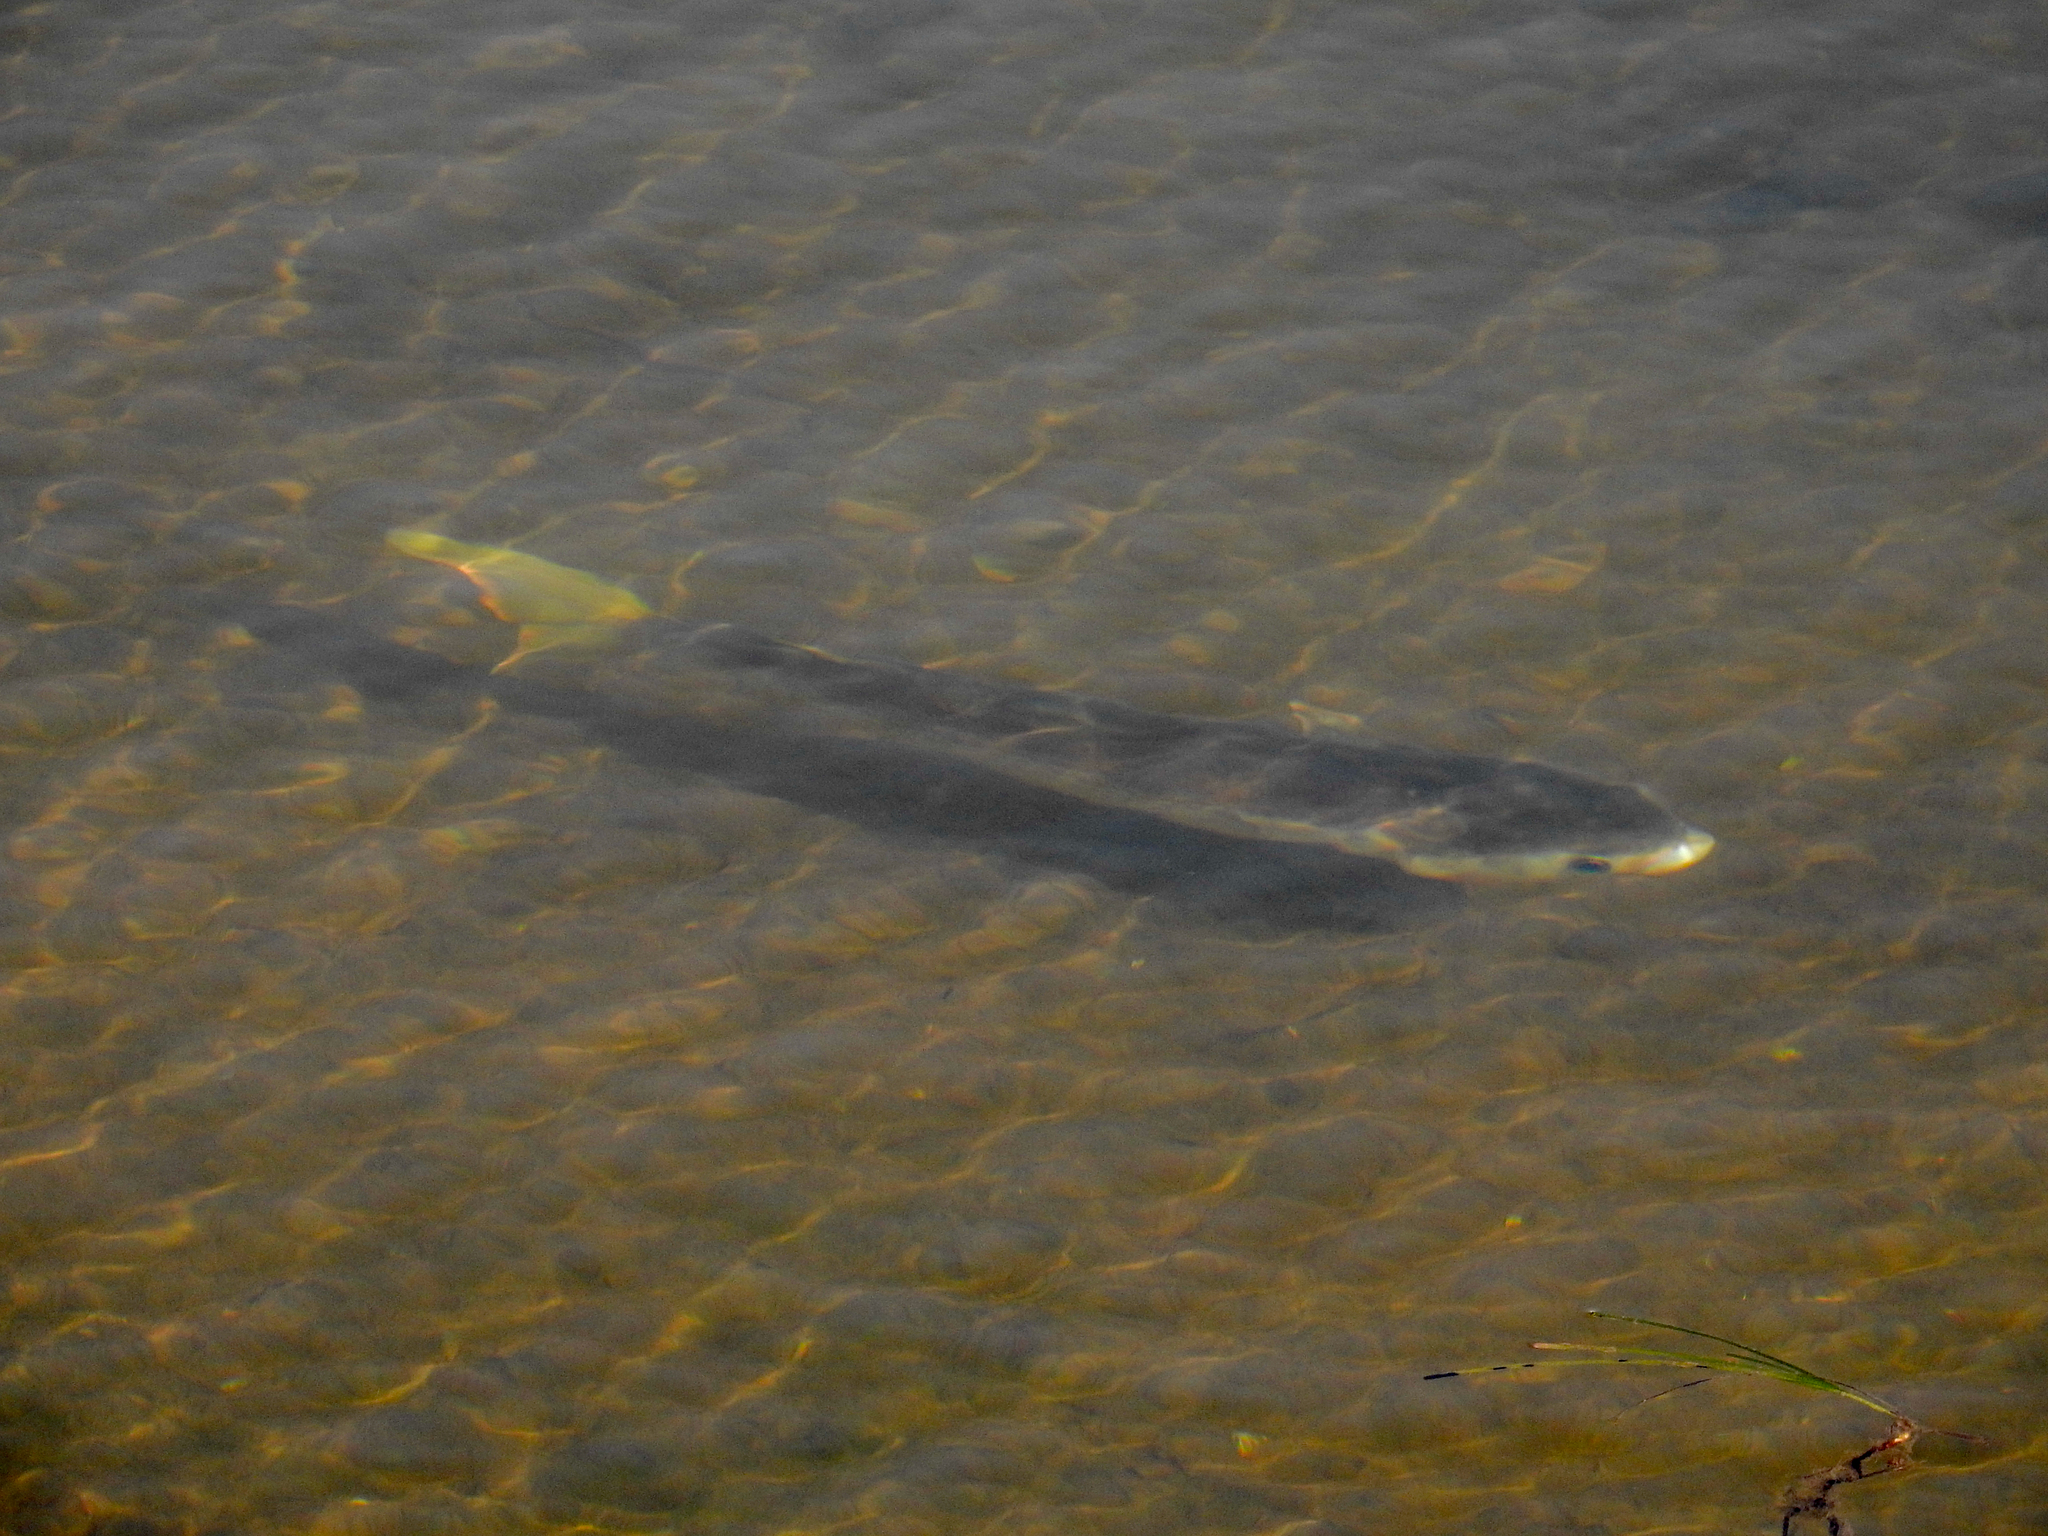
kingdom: Animalia
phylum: Chordata
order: Mugiliformes
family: Mugilidae
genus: Mugil
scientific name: Mugil cephalus
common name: Grey mullet
